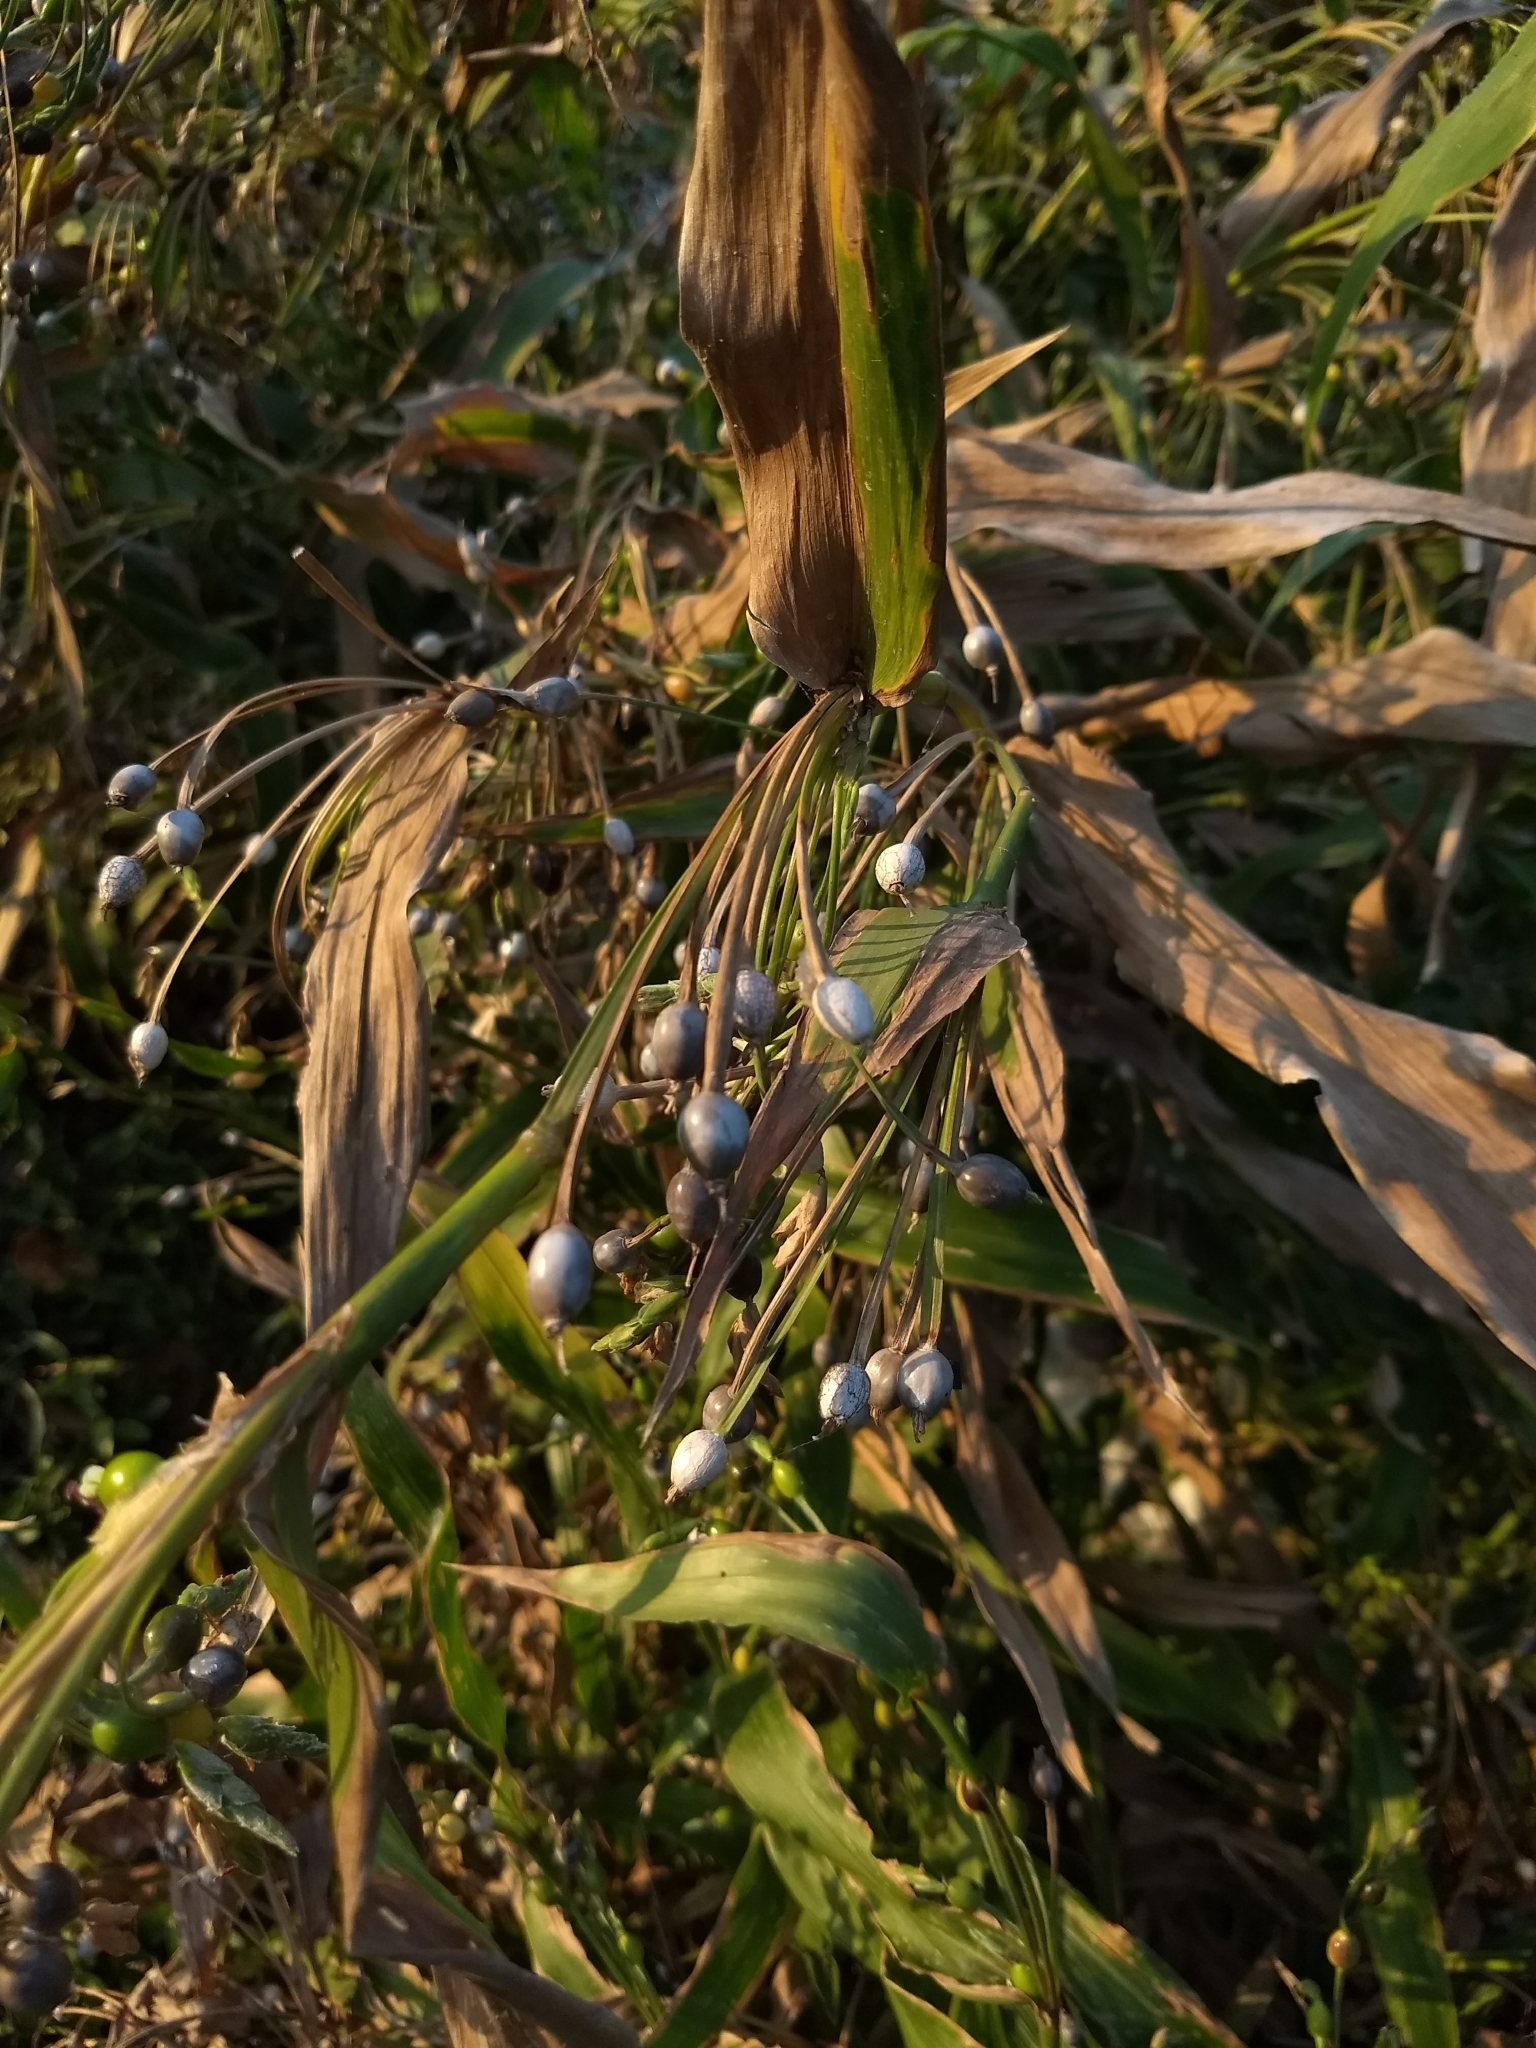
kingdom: Plantae
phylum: Tracheophyta
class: Liliopsida
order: Poales
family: Poaceae
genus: Coix
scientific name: Coix lacryma-jobi
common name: Job's tears
